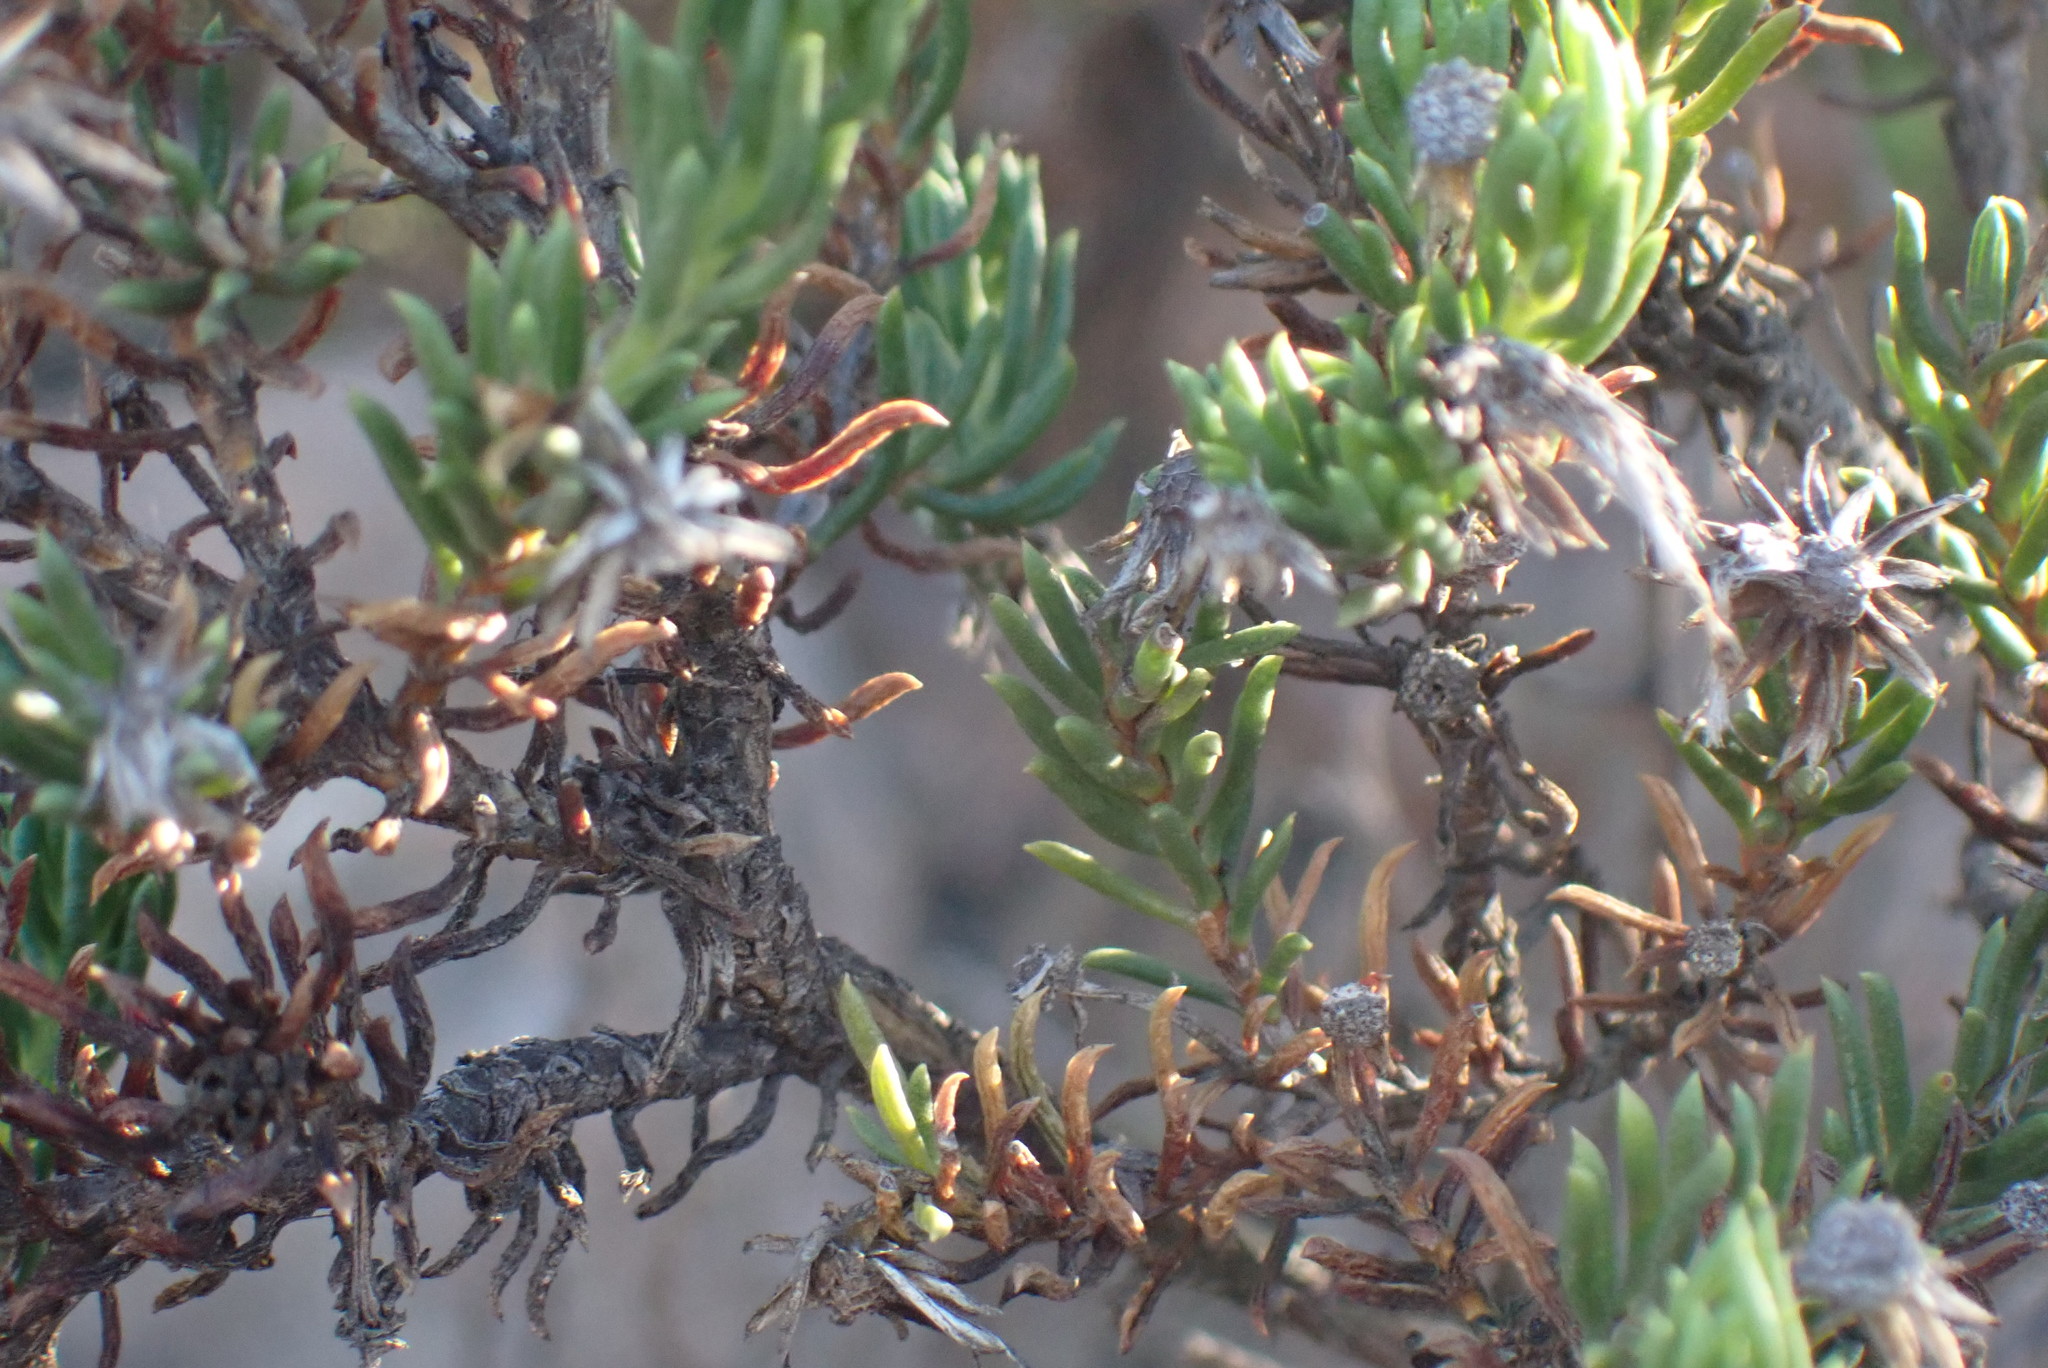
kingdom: Plantae
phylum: Tracheophyta
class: Magnoliopsida
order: Asterales
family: Asteraceae
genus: Felicia
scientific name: Felicia filifolia
